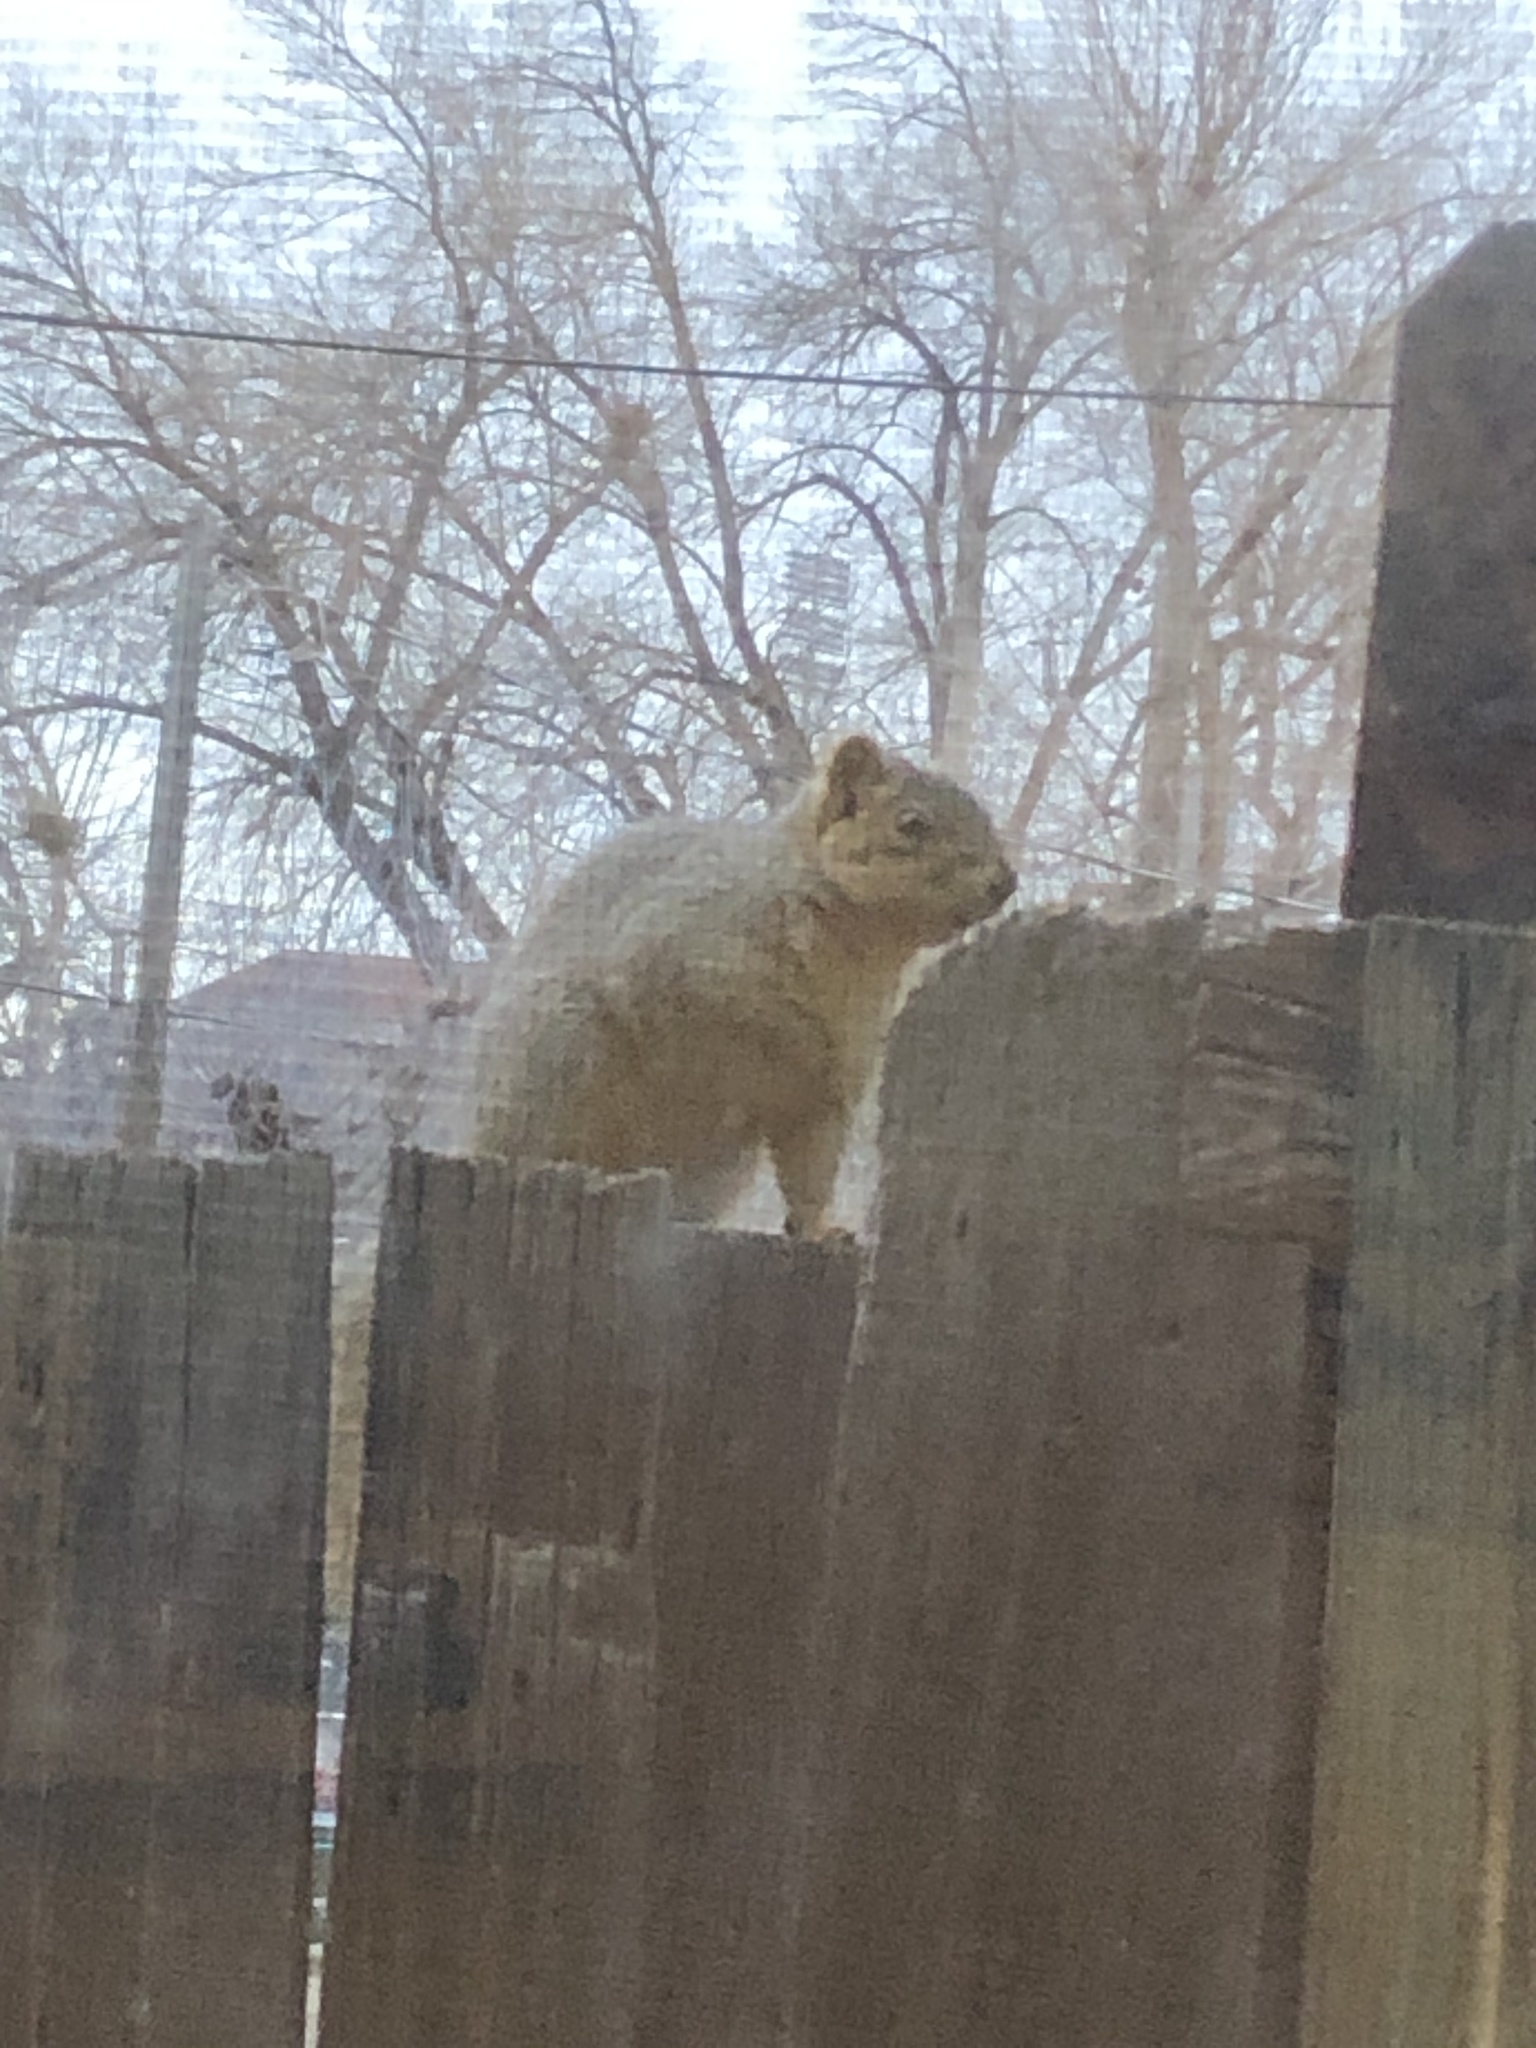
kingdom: Animalia
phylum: Chordata
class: Mammalia
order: Rodentia
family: Sciuridae
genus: Sciurus
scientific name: Sciurus niger
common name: Fox squirrel
